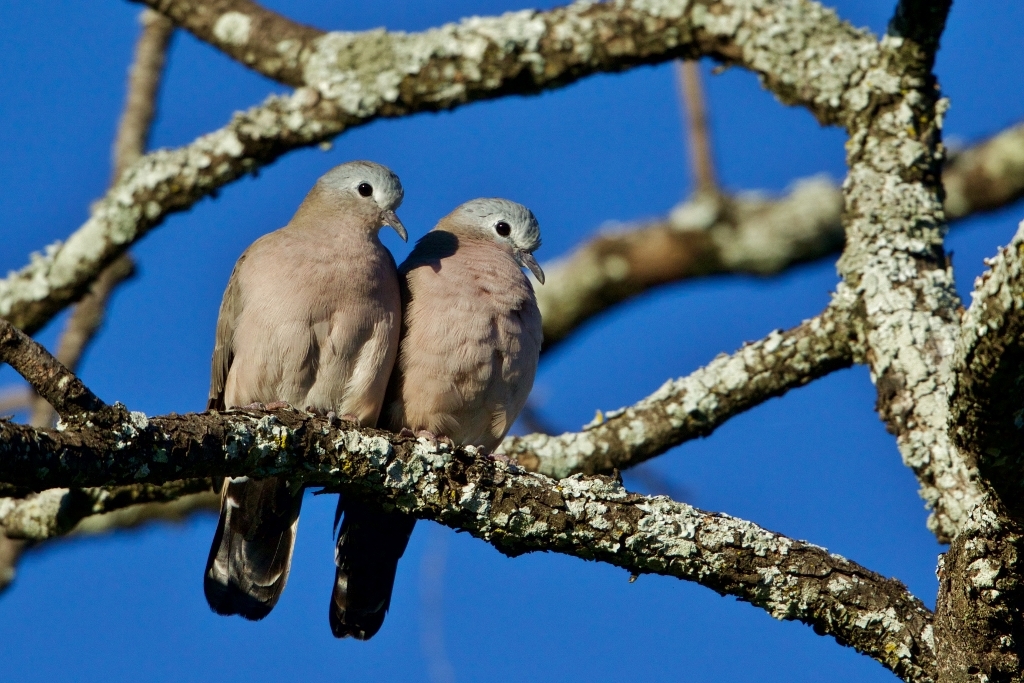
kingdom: Animalia
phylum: Chordata
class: Aves
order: Columbiformes
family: Columbidae
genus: Turtur
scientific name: Turtur chalcospilos
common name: Emerald-spotted wood dove
